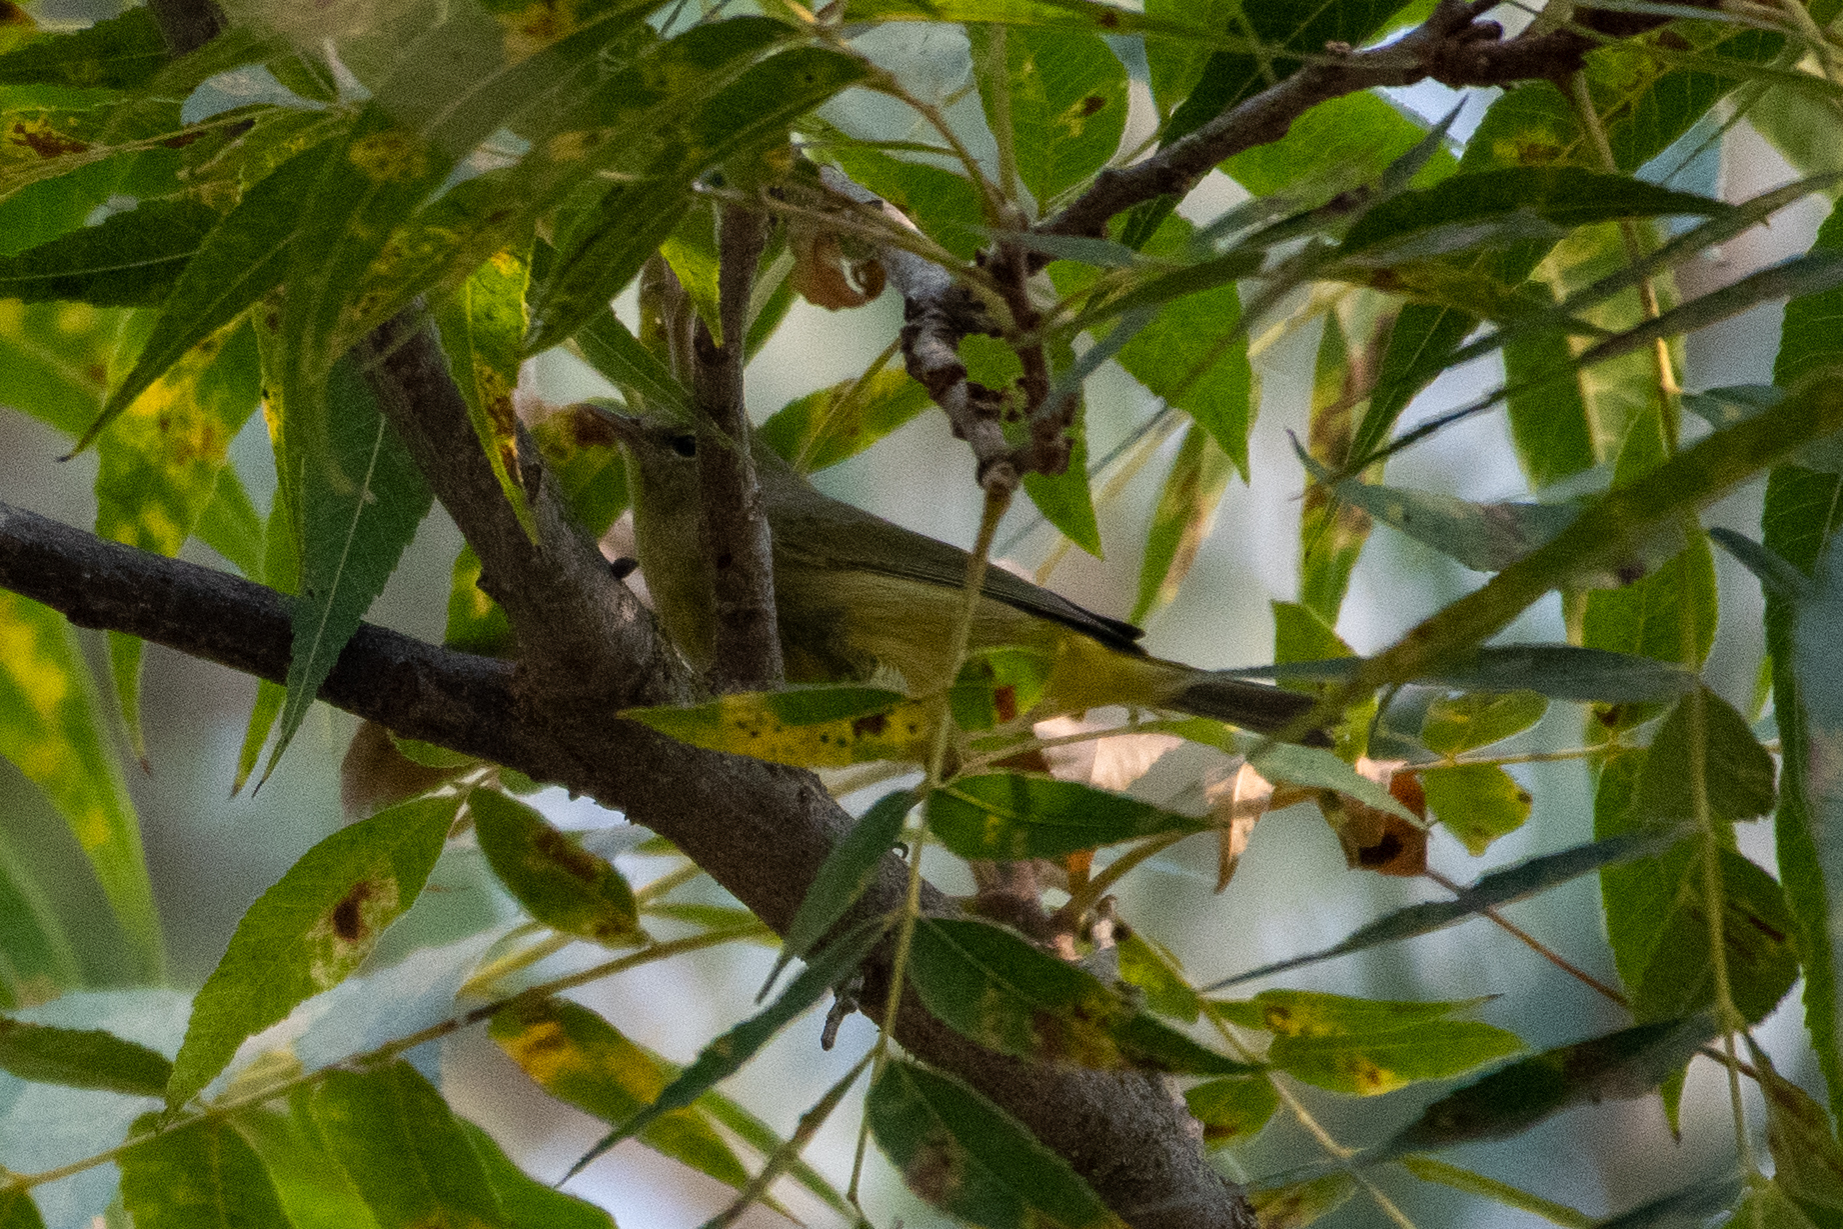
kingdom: Animalia
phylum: Chordata
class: Aves
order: Passeriformes
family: Parulidae
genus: Leiothlypis
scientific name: Leiothlypis celata
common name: Orange-crowned warbler
